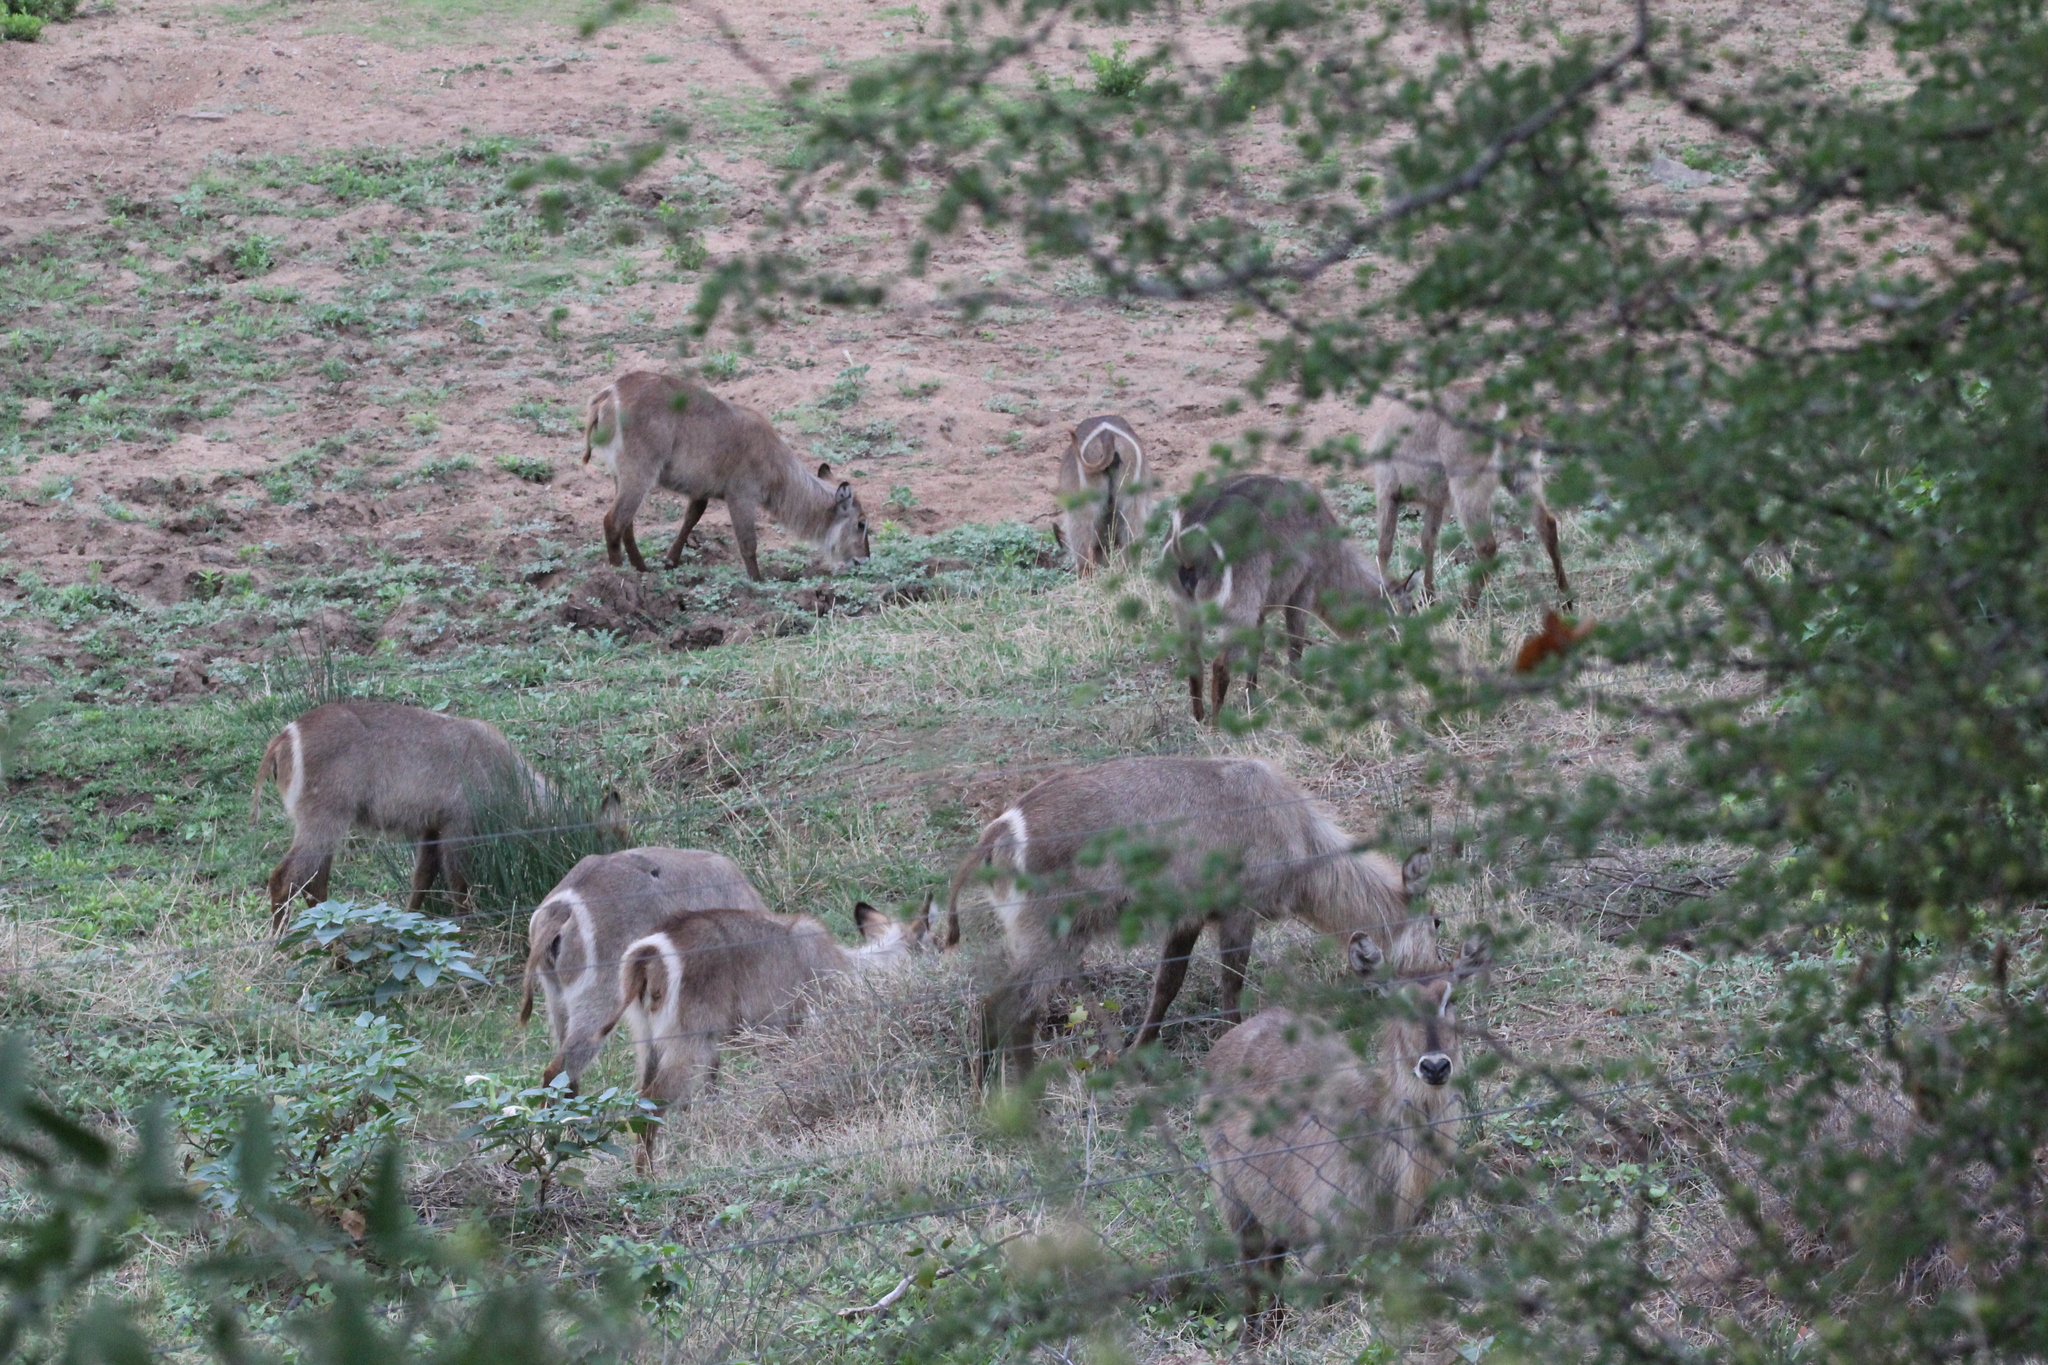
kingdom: Animalia
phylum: Chordata
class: Mammalia
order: Artiodactyla
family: Bovidae
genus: Kobus
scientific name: Kobus ellipsiprymnus
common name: Waterbuck
